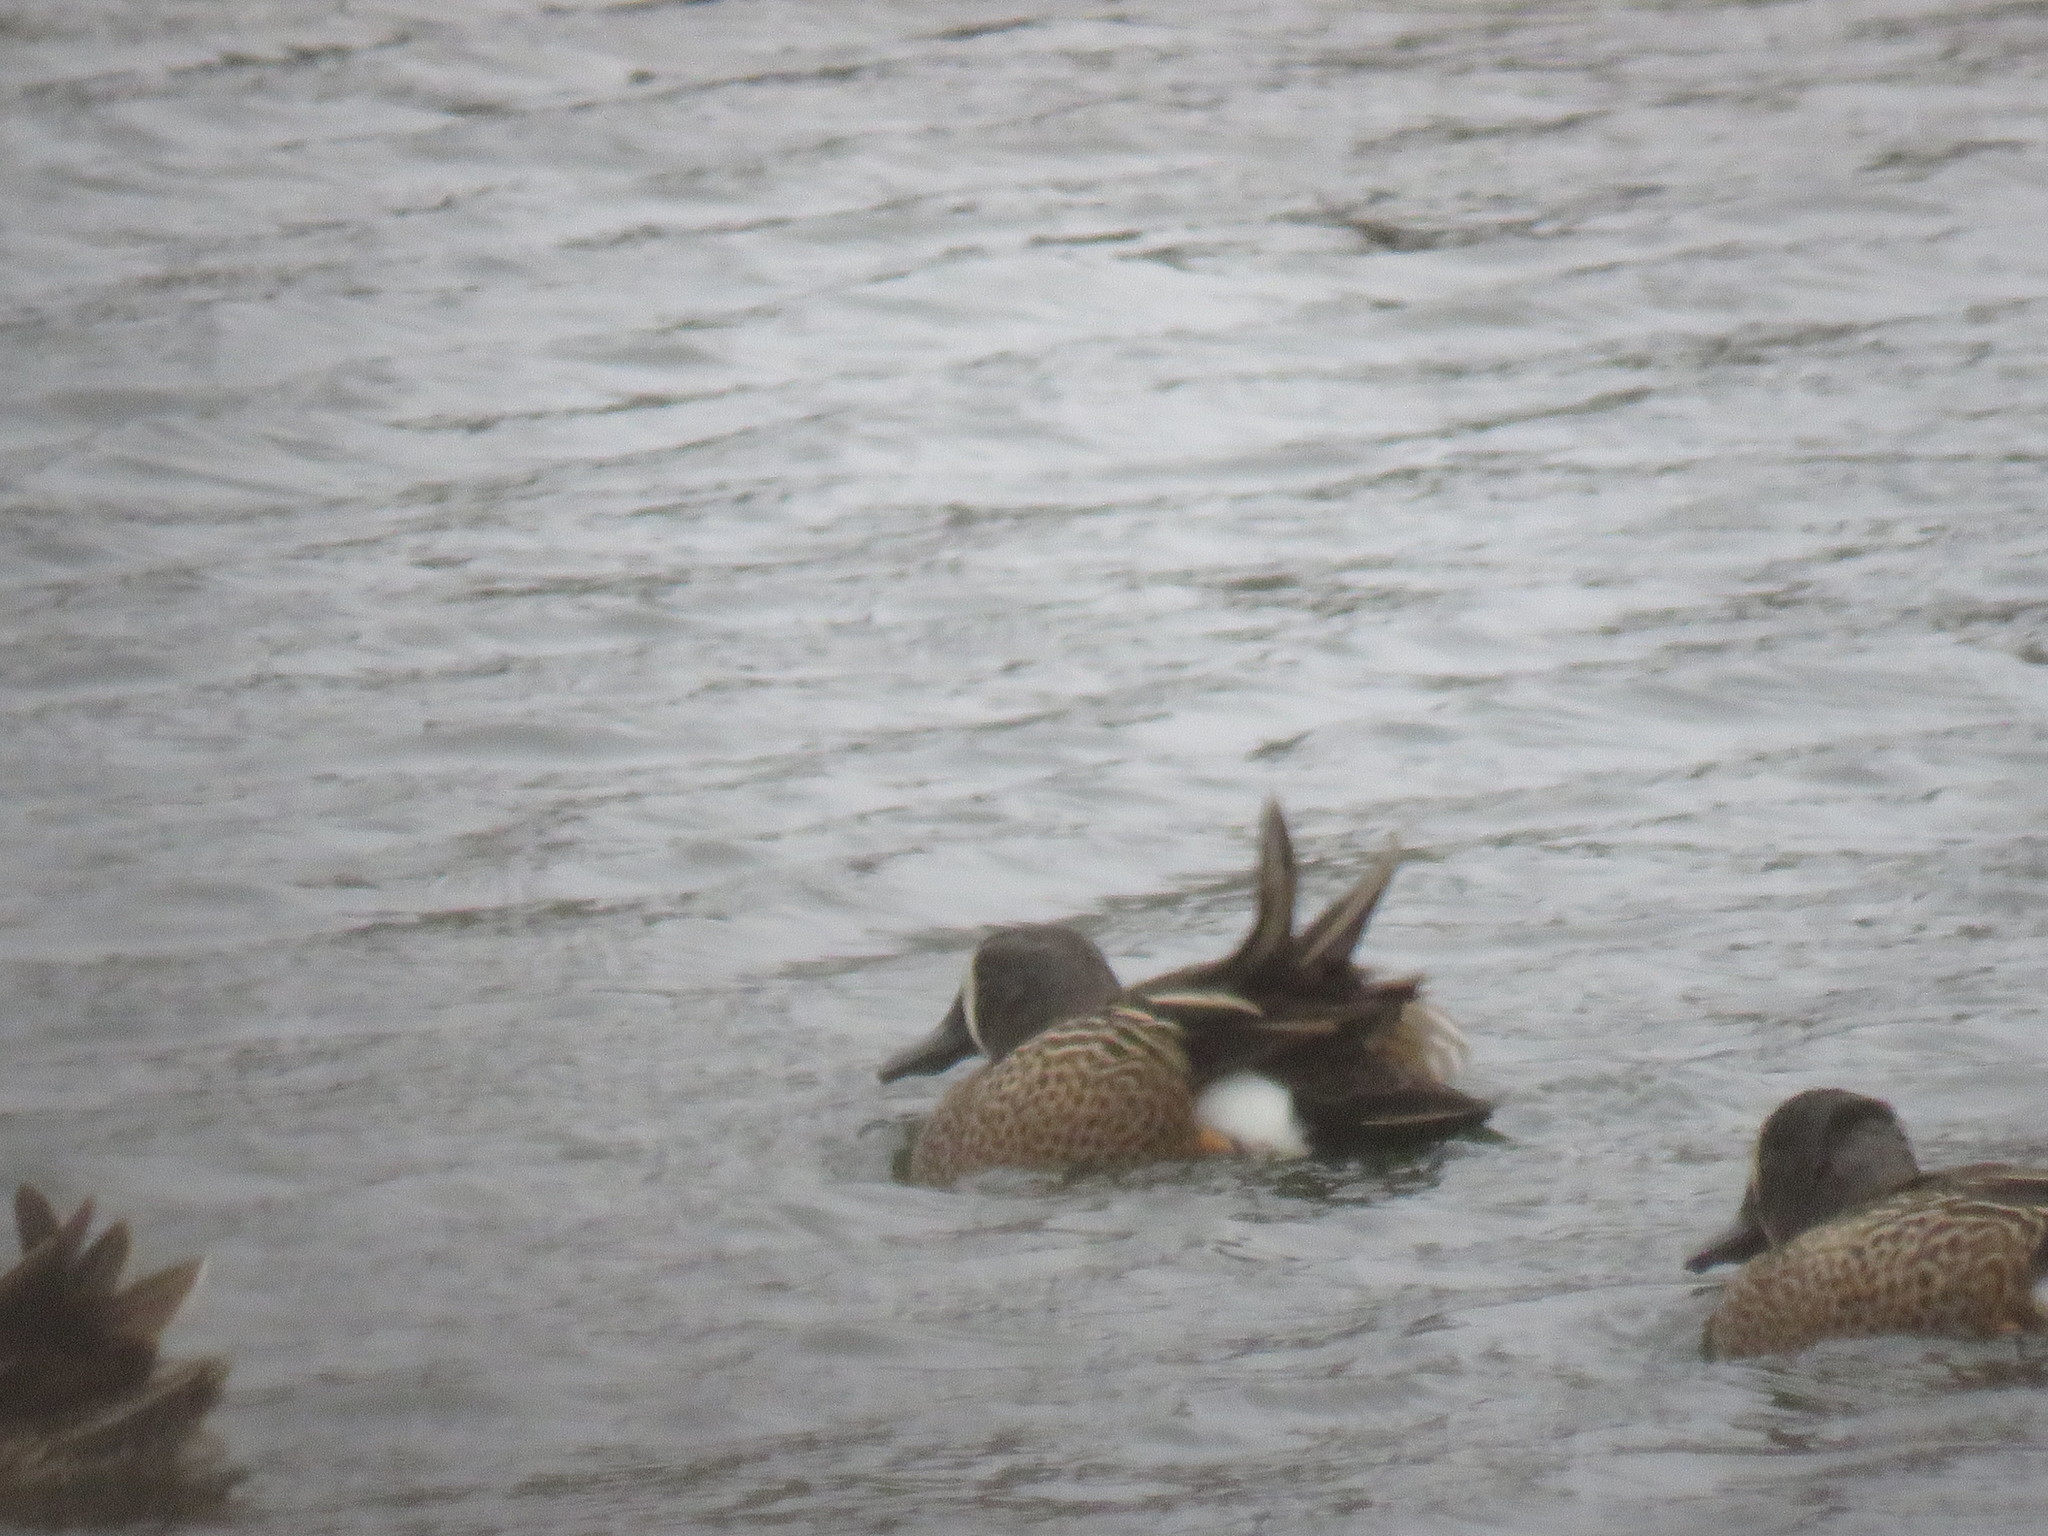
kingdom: Animalia
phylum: Chordata
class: Aves
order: Anseriformes
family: Anatidae
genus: Spatula
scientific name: Spatula discors
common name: Blue-winged teal
